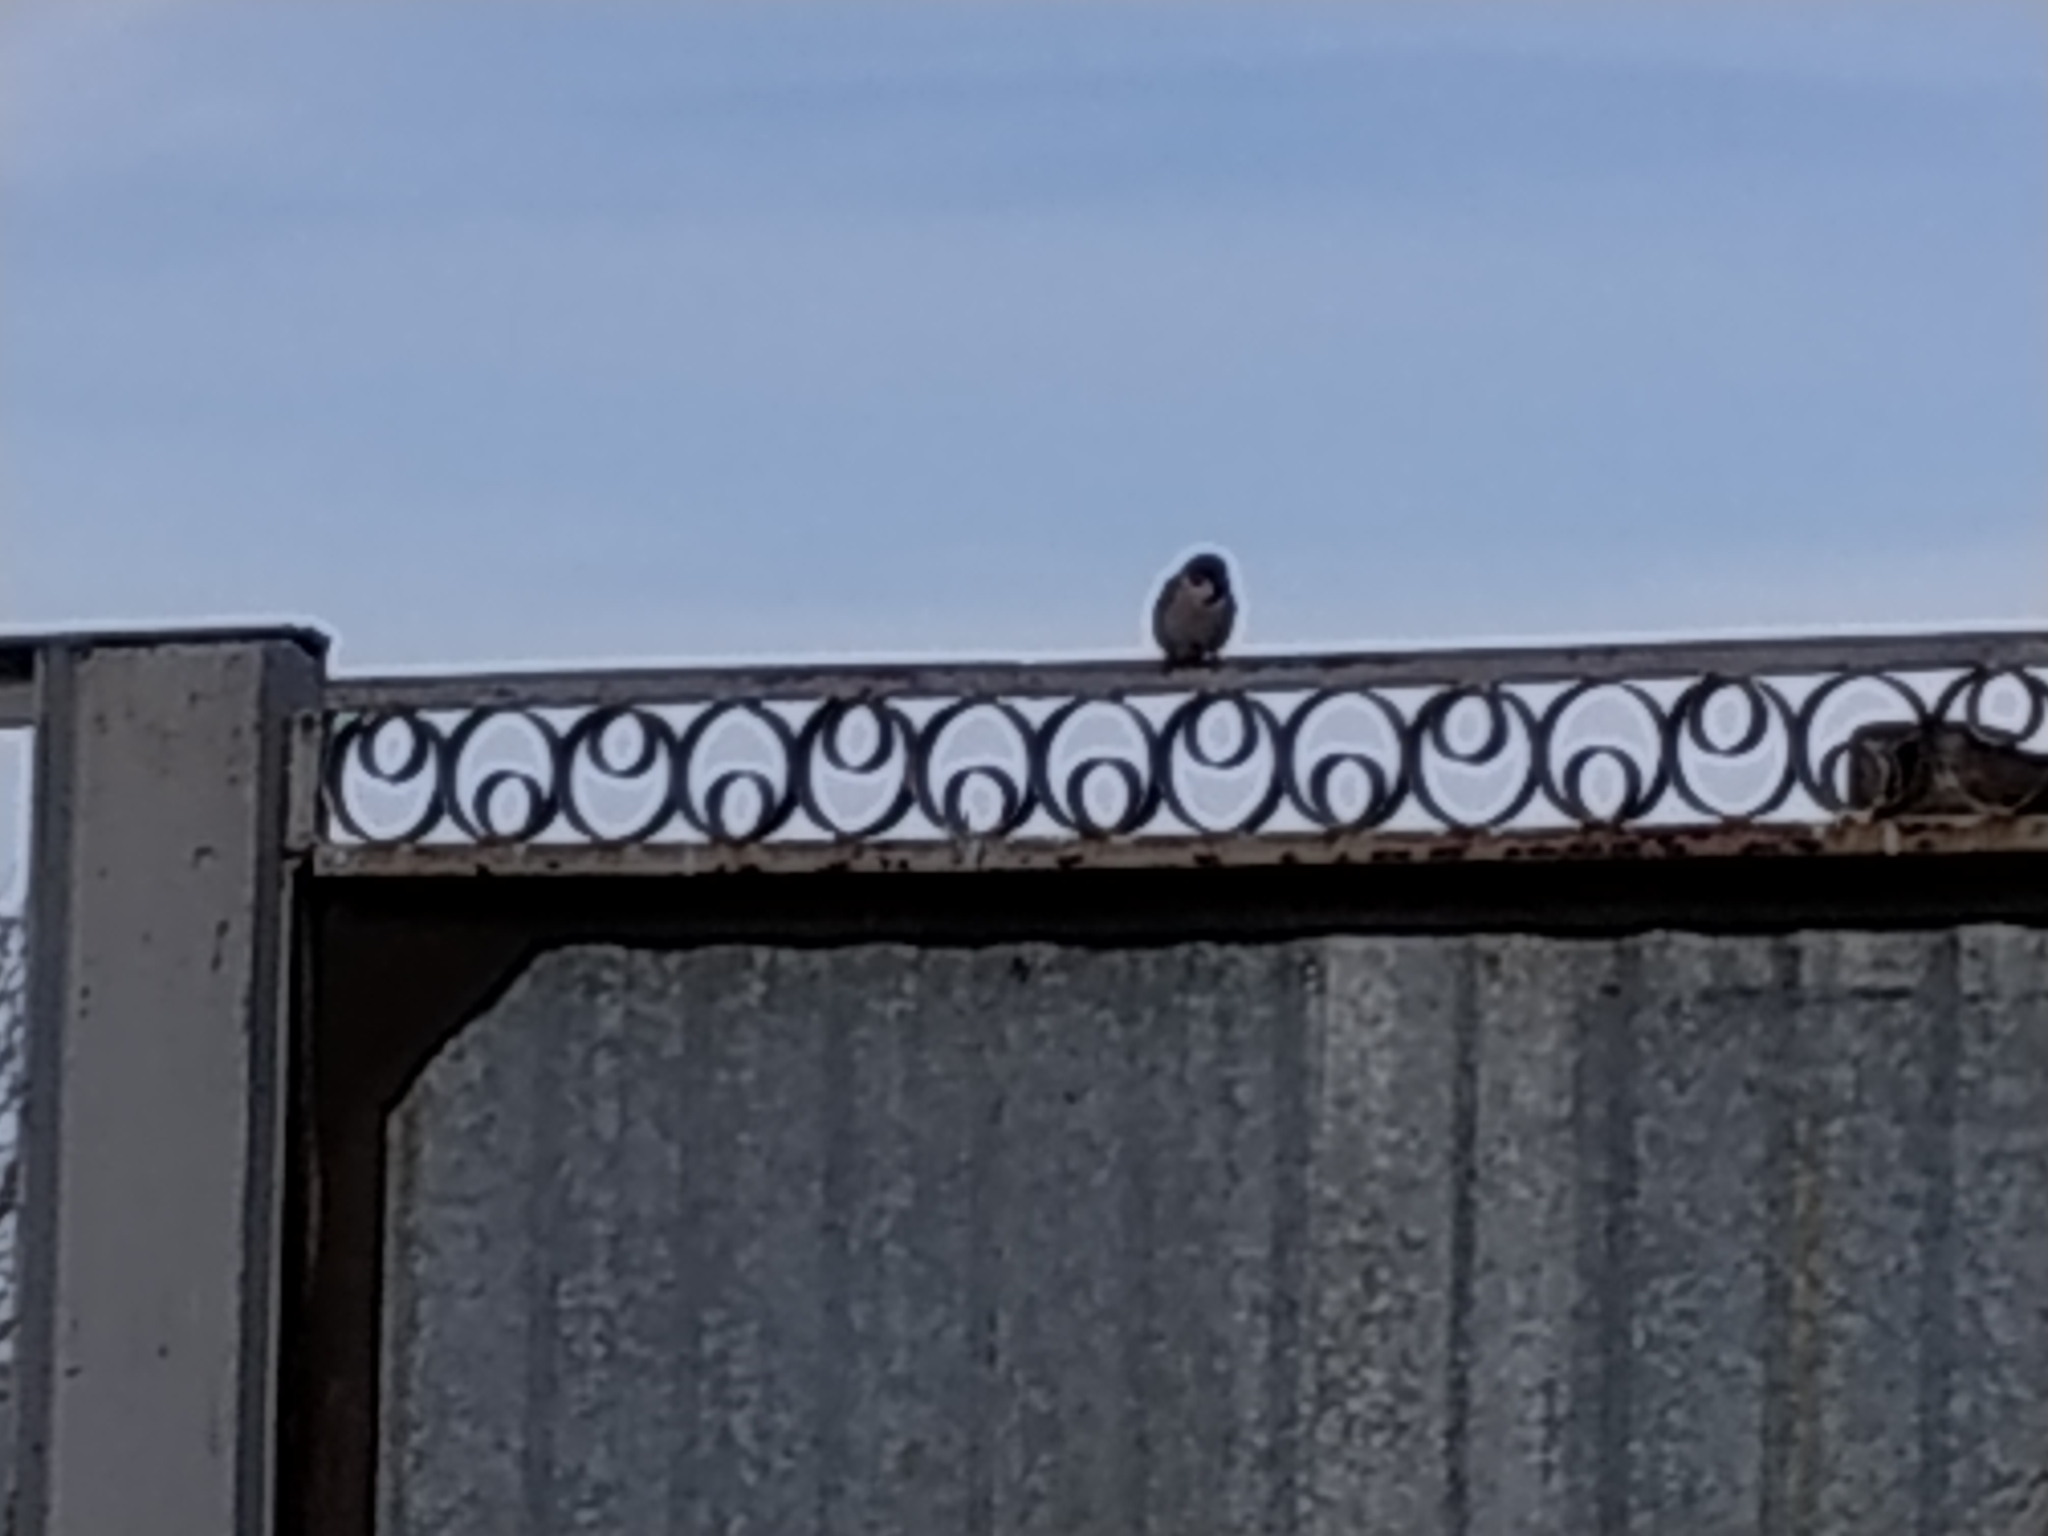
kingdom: Animalia
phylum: Chordata
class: Aves
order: Passeriformes
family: Passeridae
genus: Passer
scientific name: Passer montanus
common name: Eurasian tree sparrow
